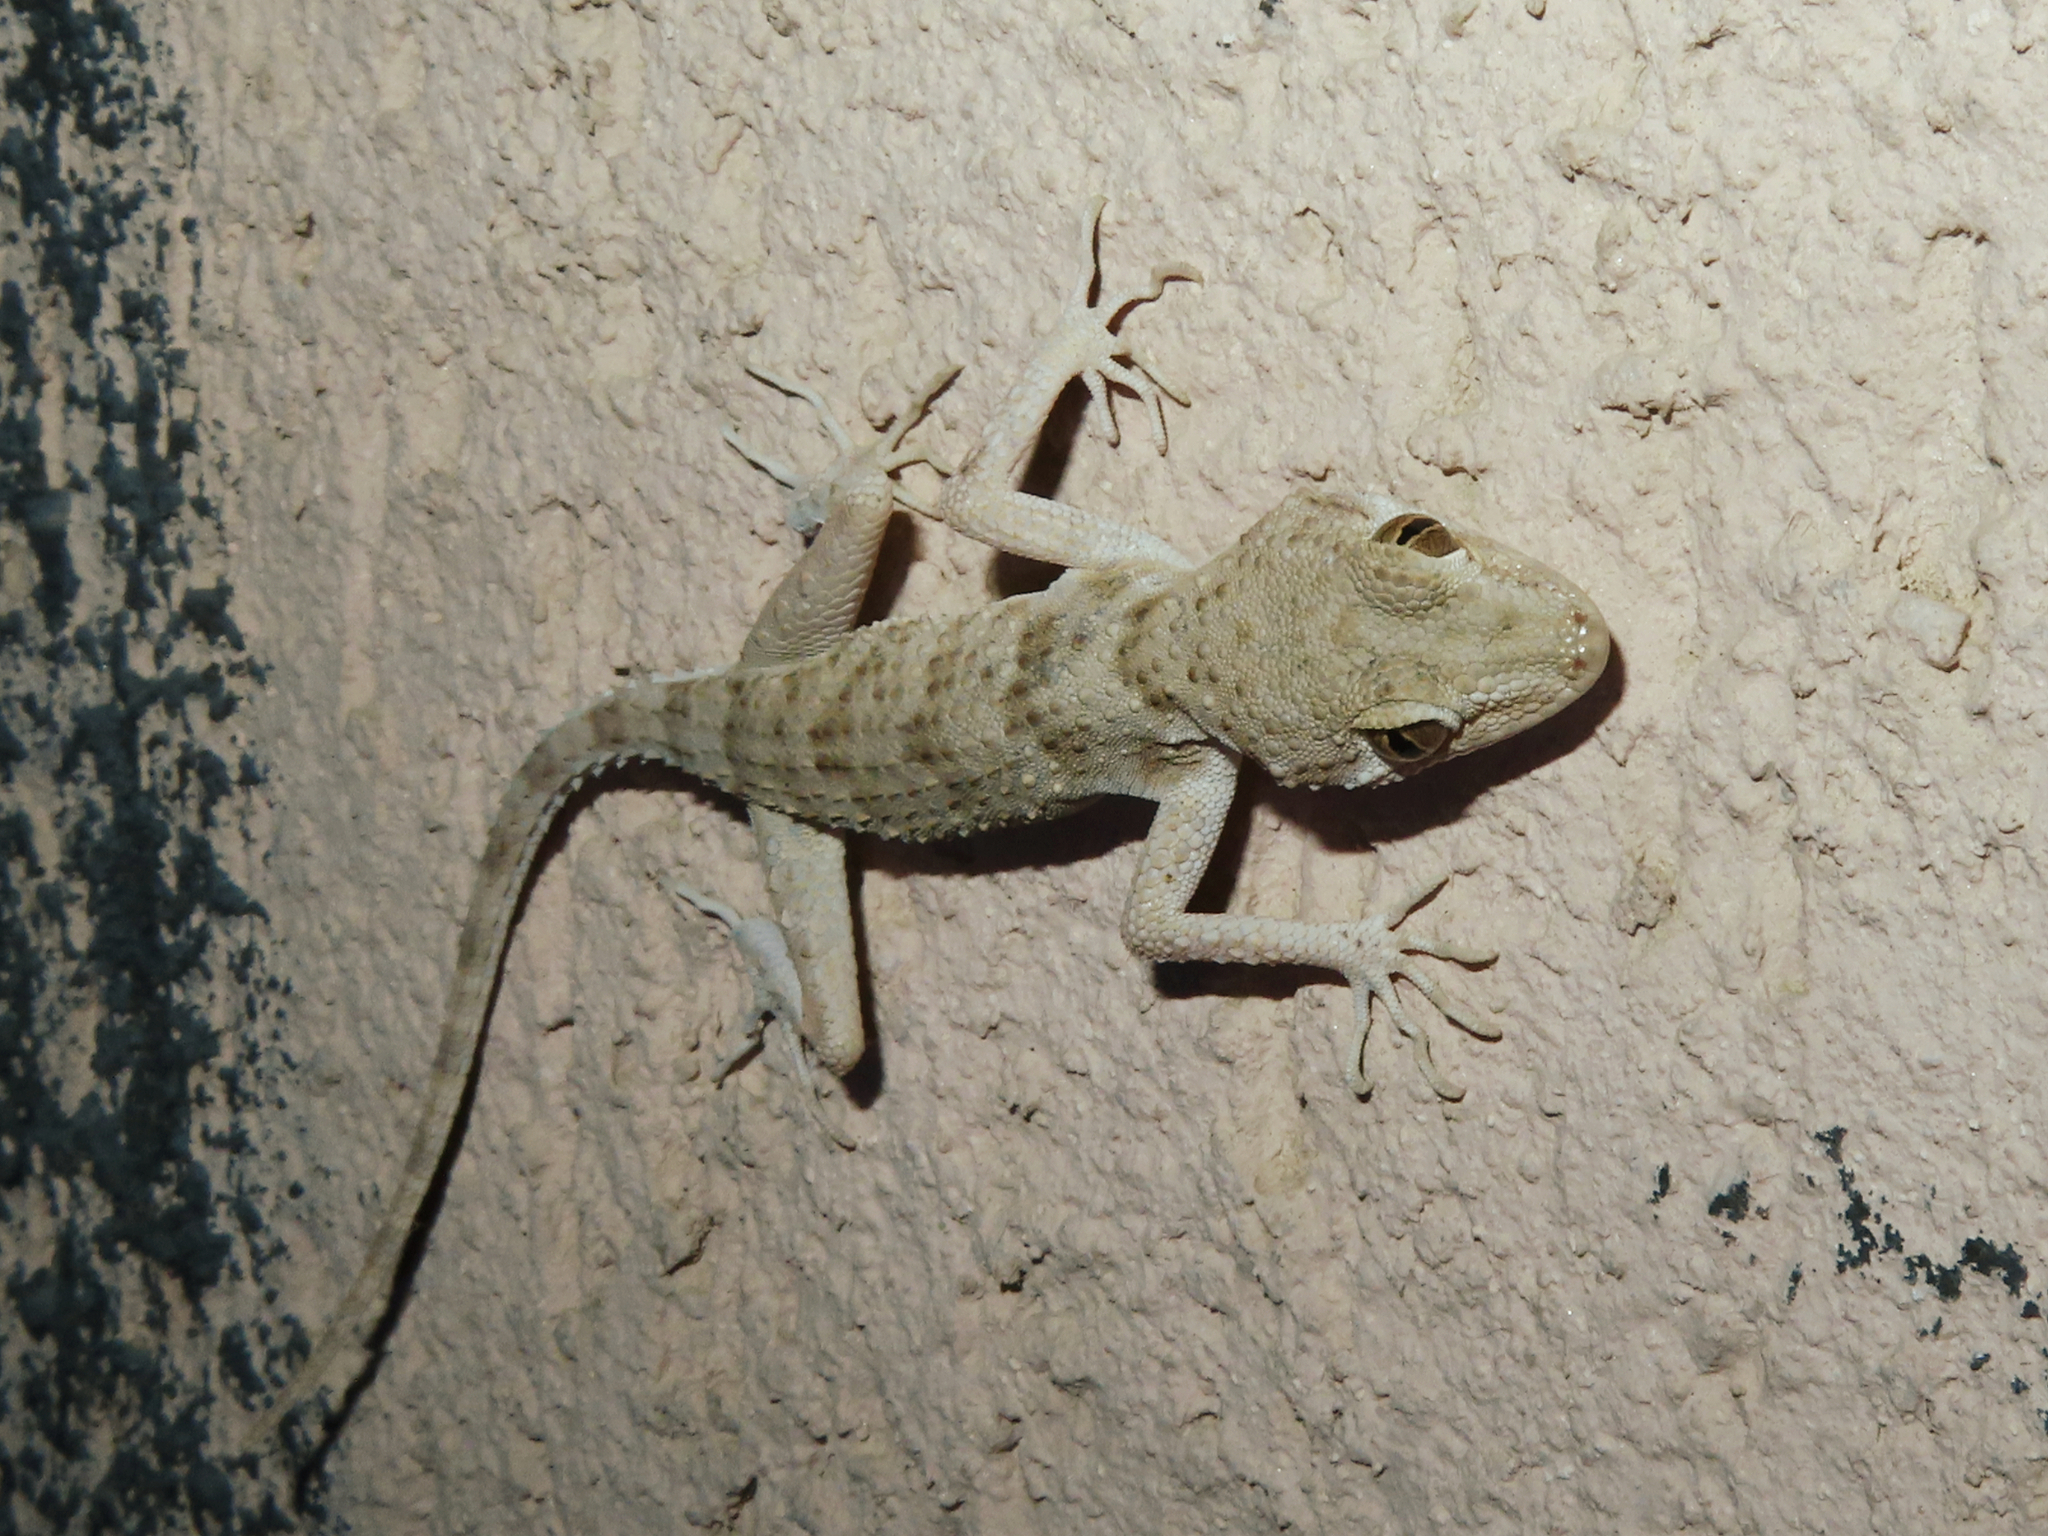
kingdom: Animalia
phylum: Chordata
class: Squamata
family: Gekkonidae
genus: Tenuidactylus
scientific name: Tenuidactylus caspius
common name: Caspian bent-toed gecko
